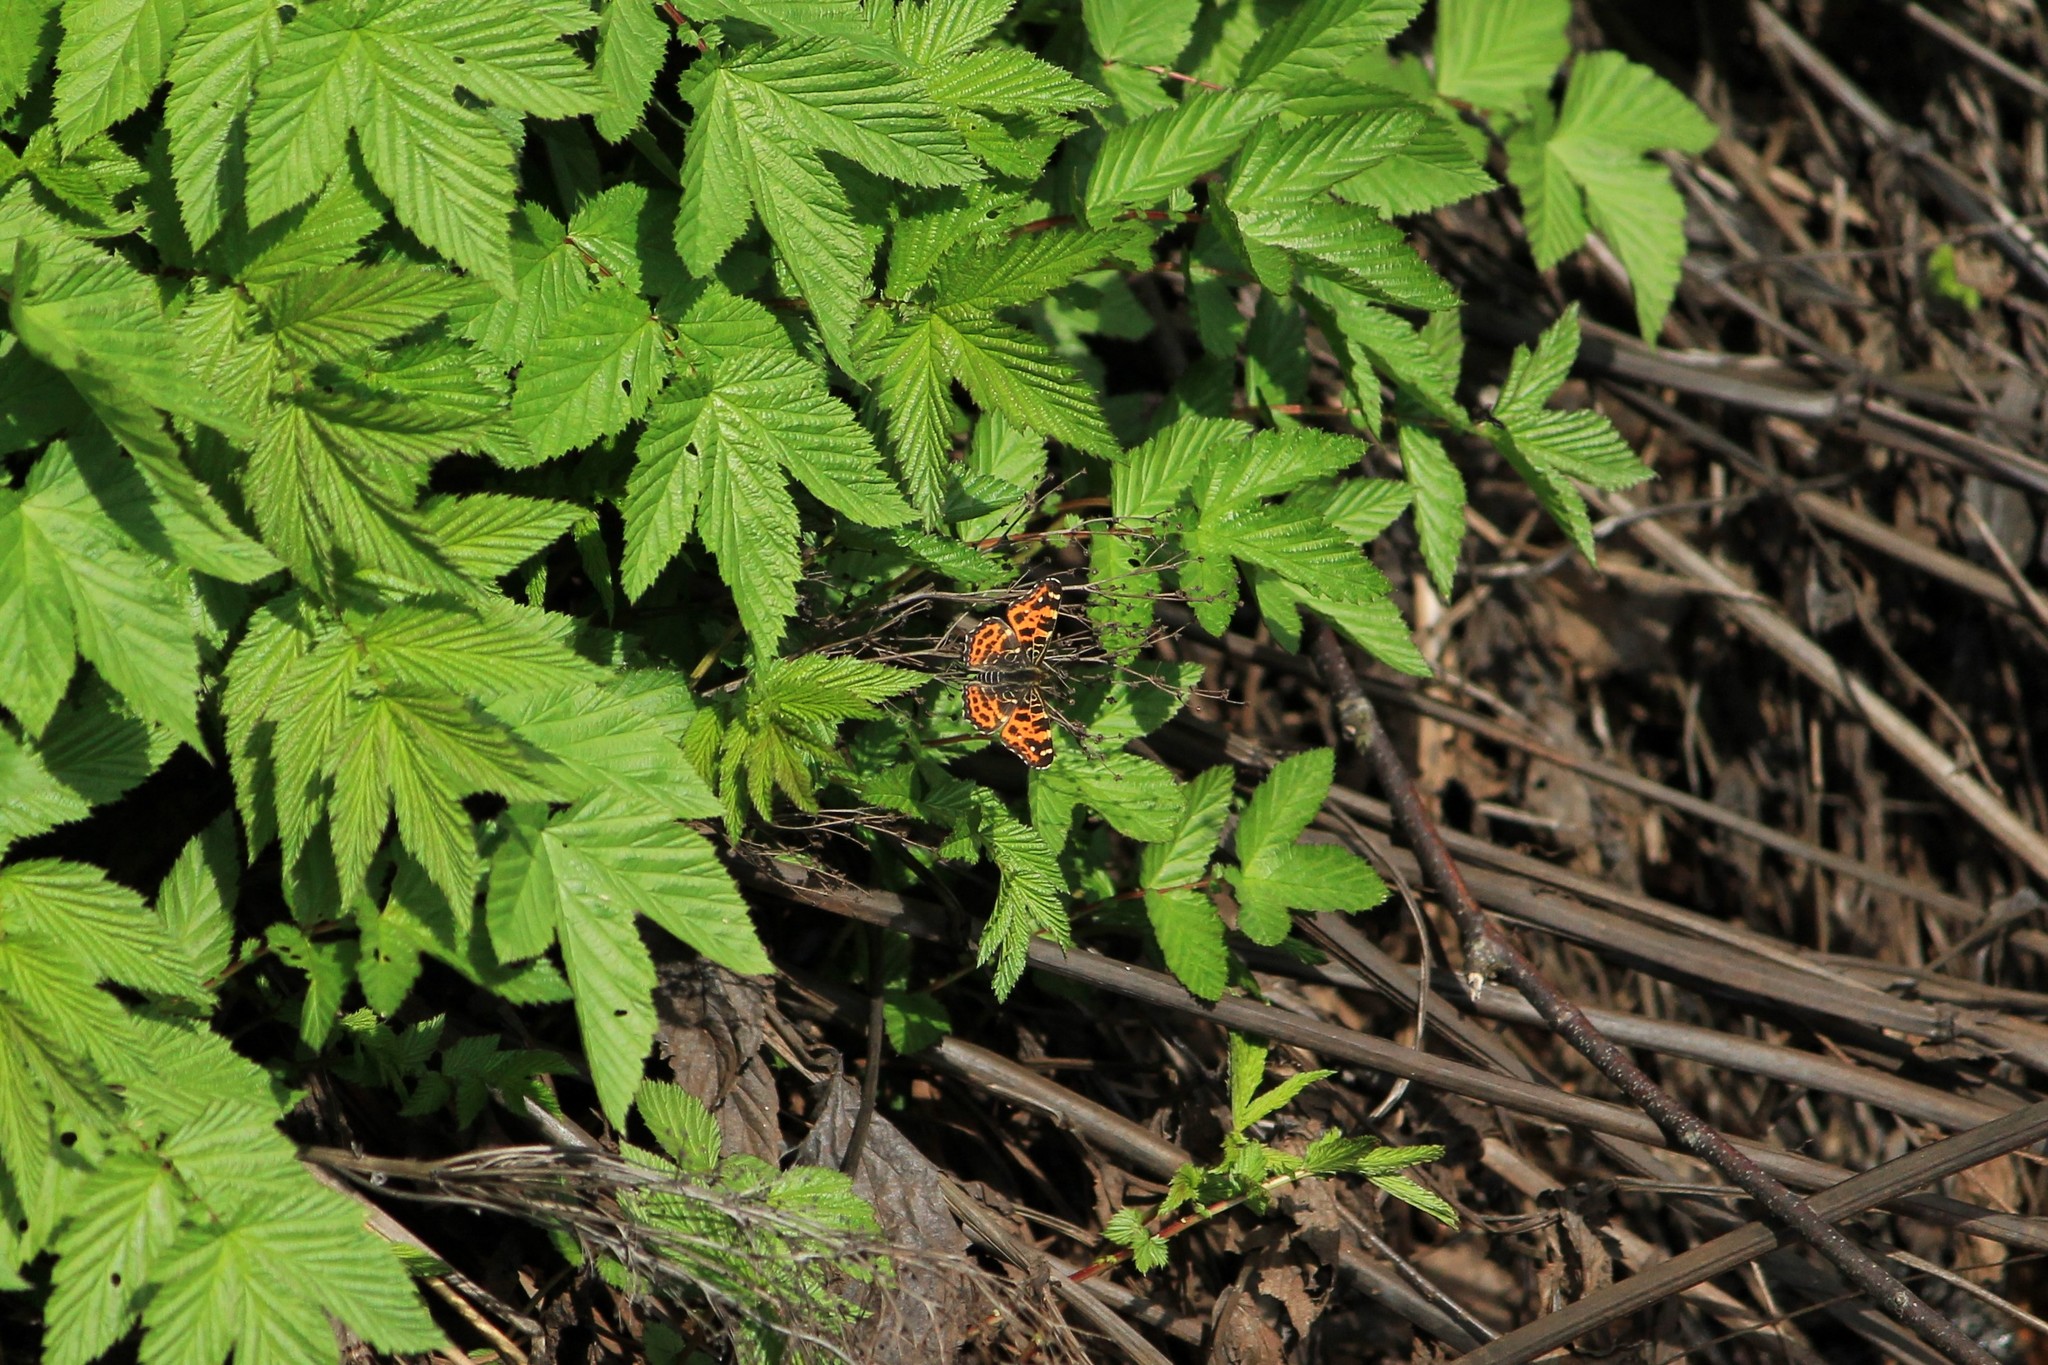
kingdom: Animalia
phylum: Arthropoda
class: Insecta
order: Lepidoptera
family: Nymphalidae
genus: Araschnia
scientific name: Araschnia levana
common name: Map butterfly
